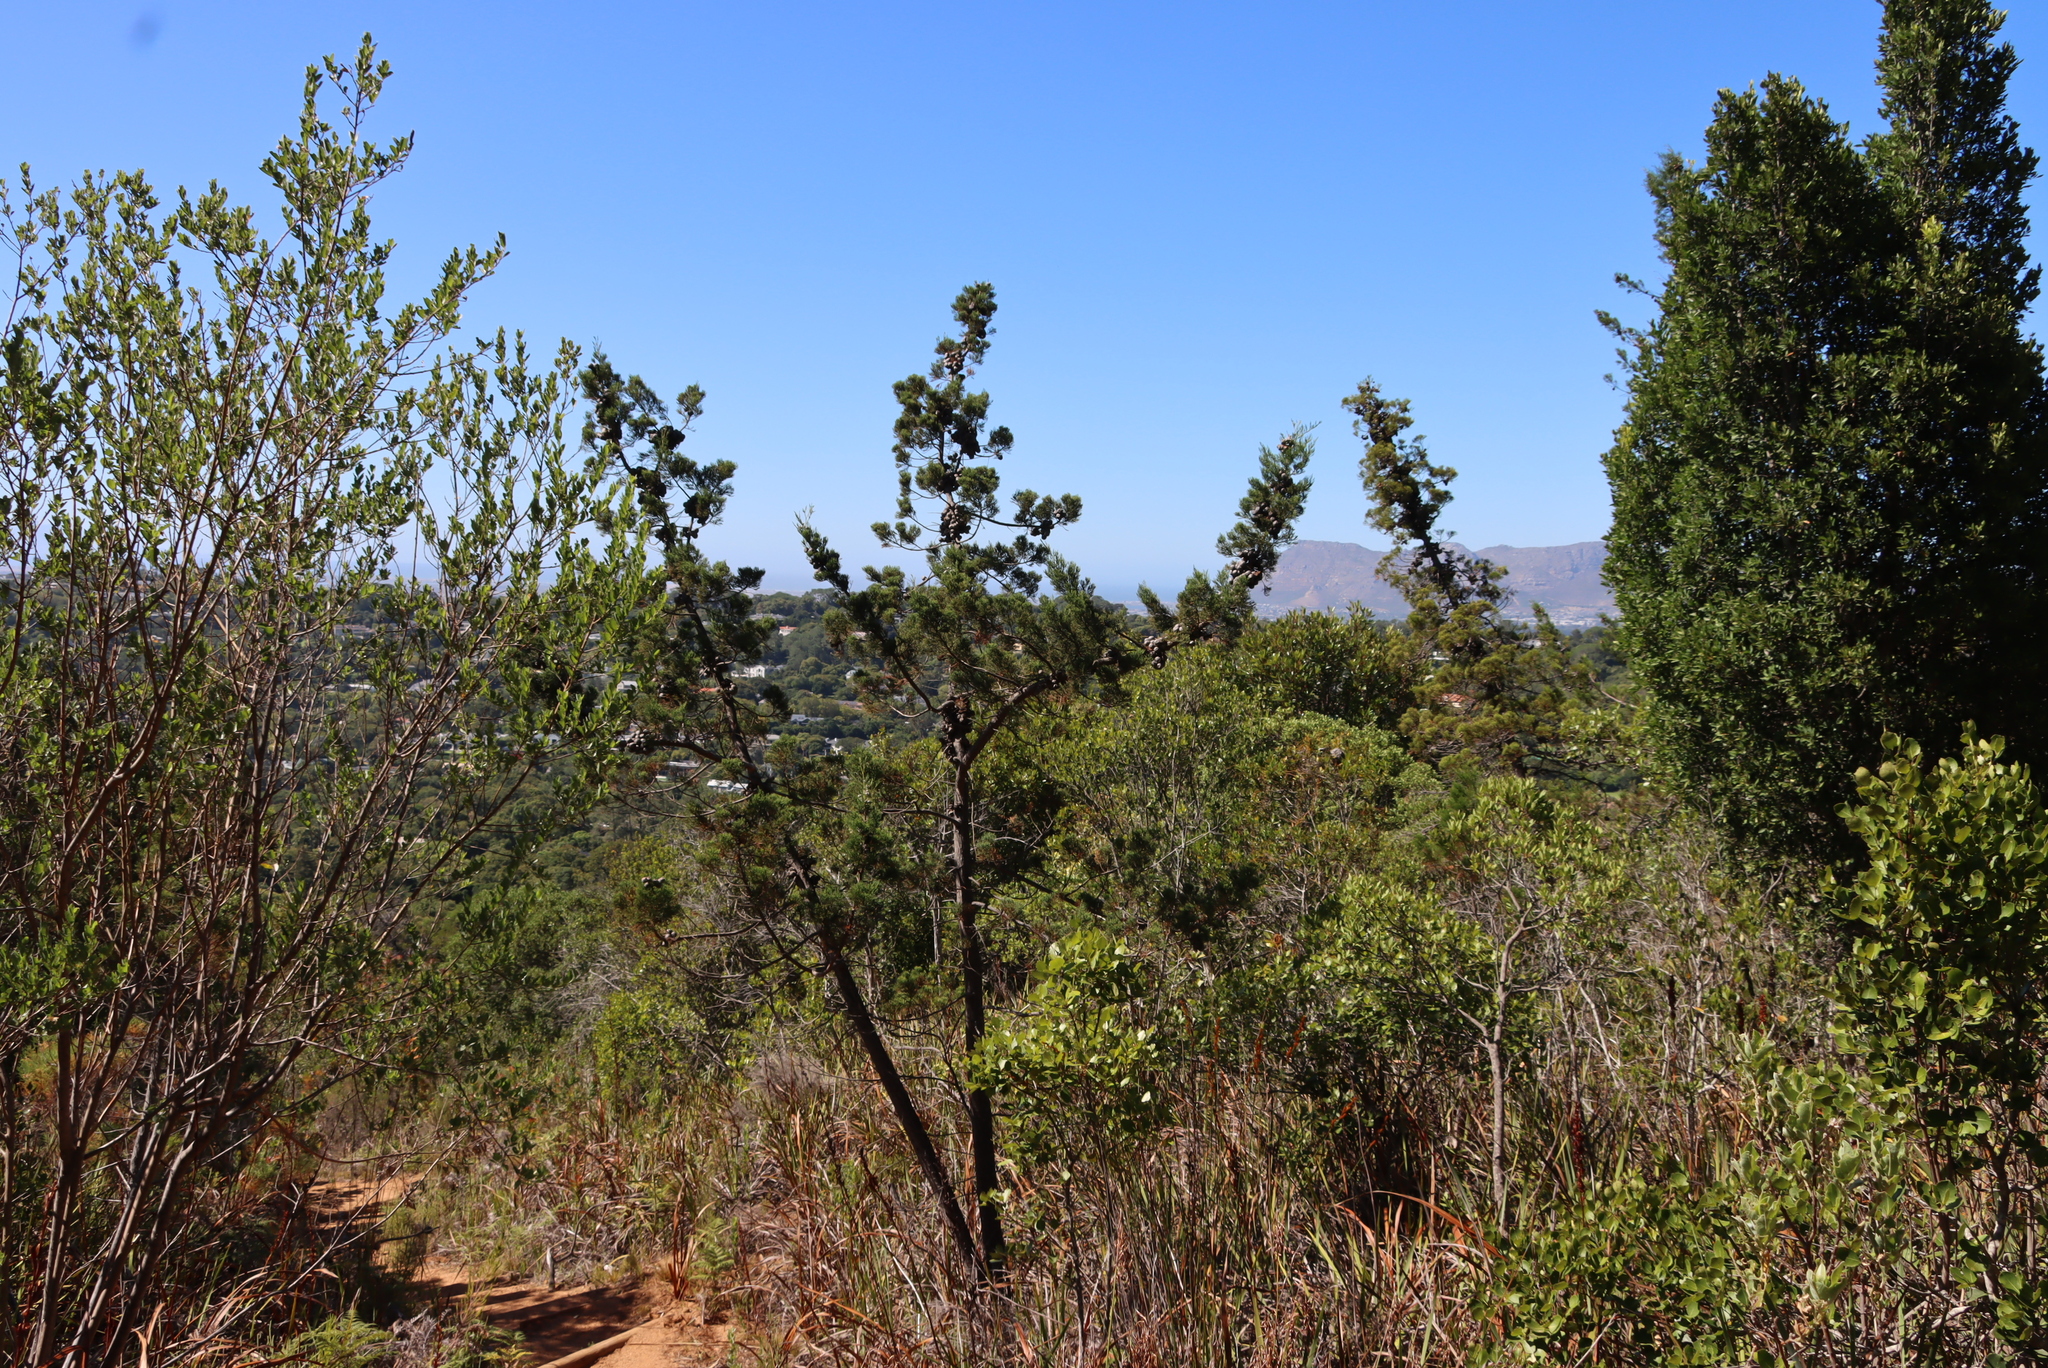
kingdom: Plantae
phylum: Tracheophyta
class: Pinopsida
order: Pinales
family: Cupressaceae
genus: Widdringtonia
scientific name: Widdringtonia nodiflora
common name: Cape cypress
